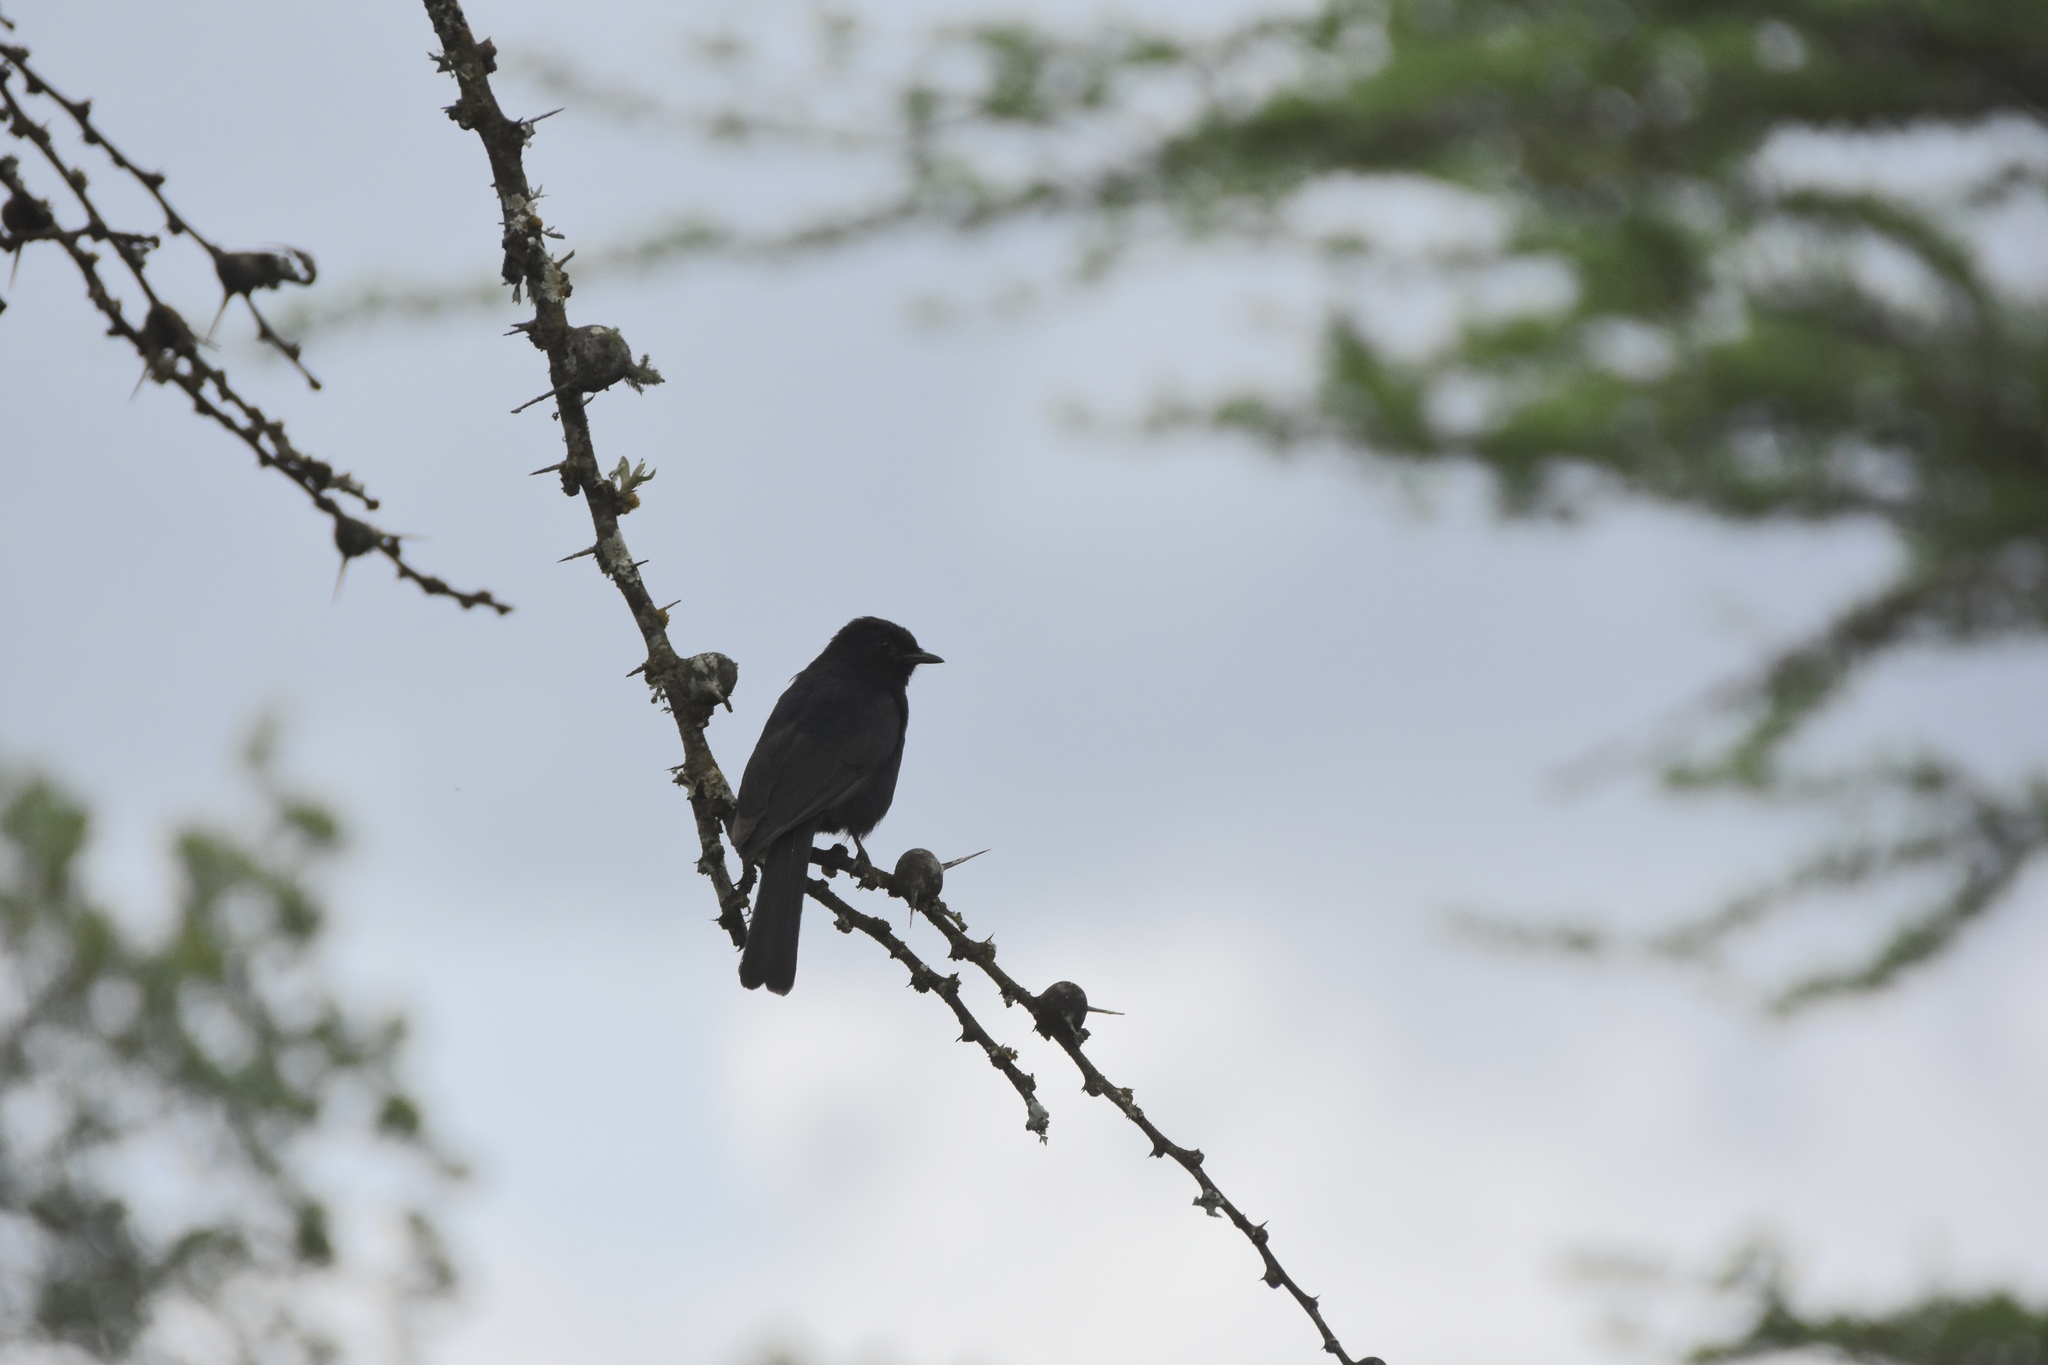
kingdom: Animalia
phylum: Chordata
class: Aves
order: Passeriformes
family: Muscicapidae
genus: Melaenornis
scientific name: Melaenornis pammelaina
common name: Southern black flycatcher
